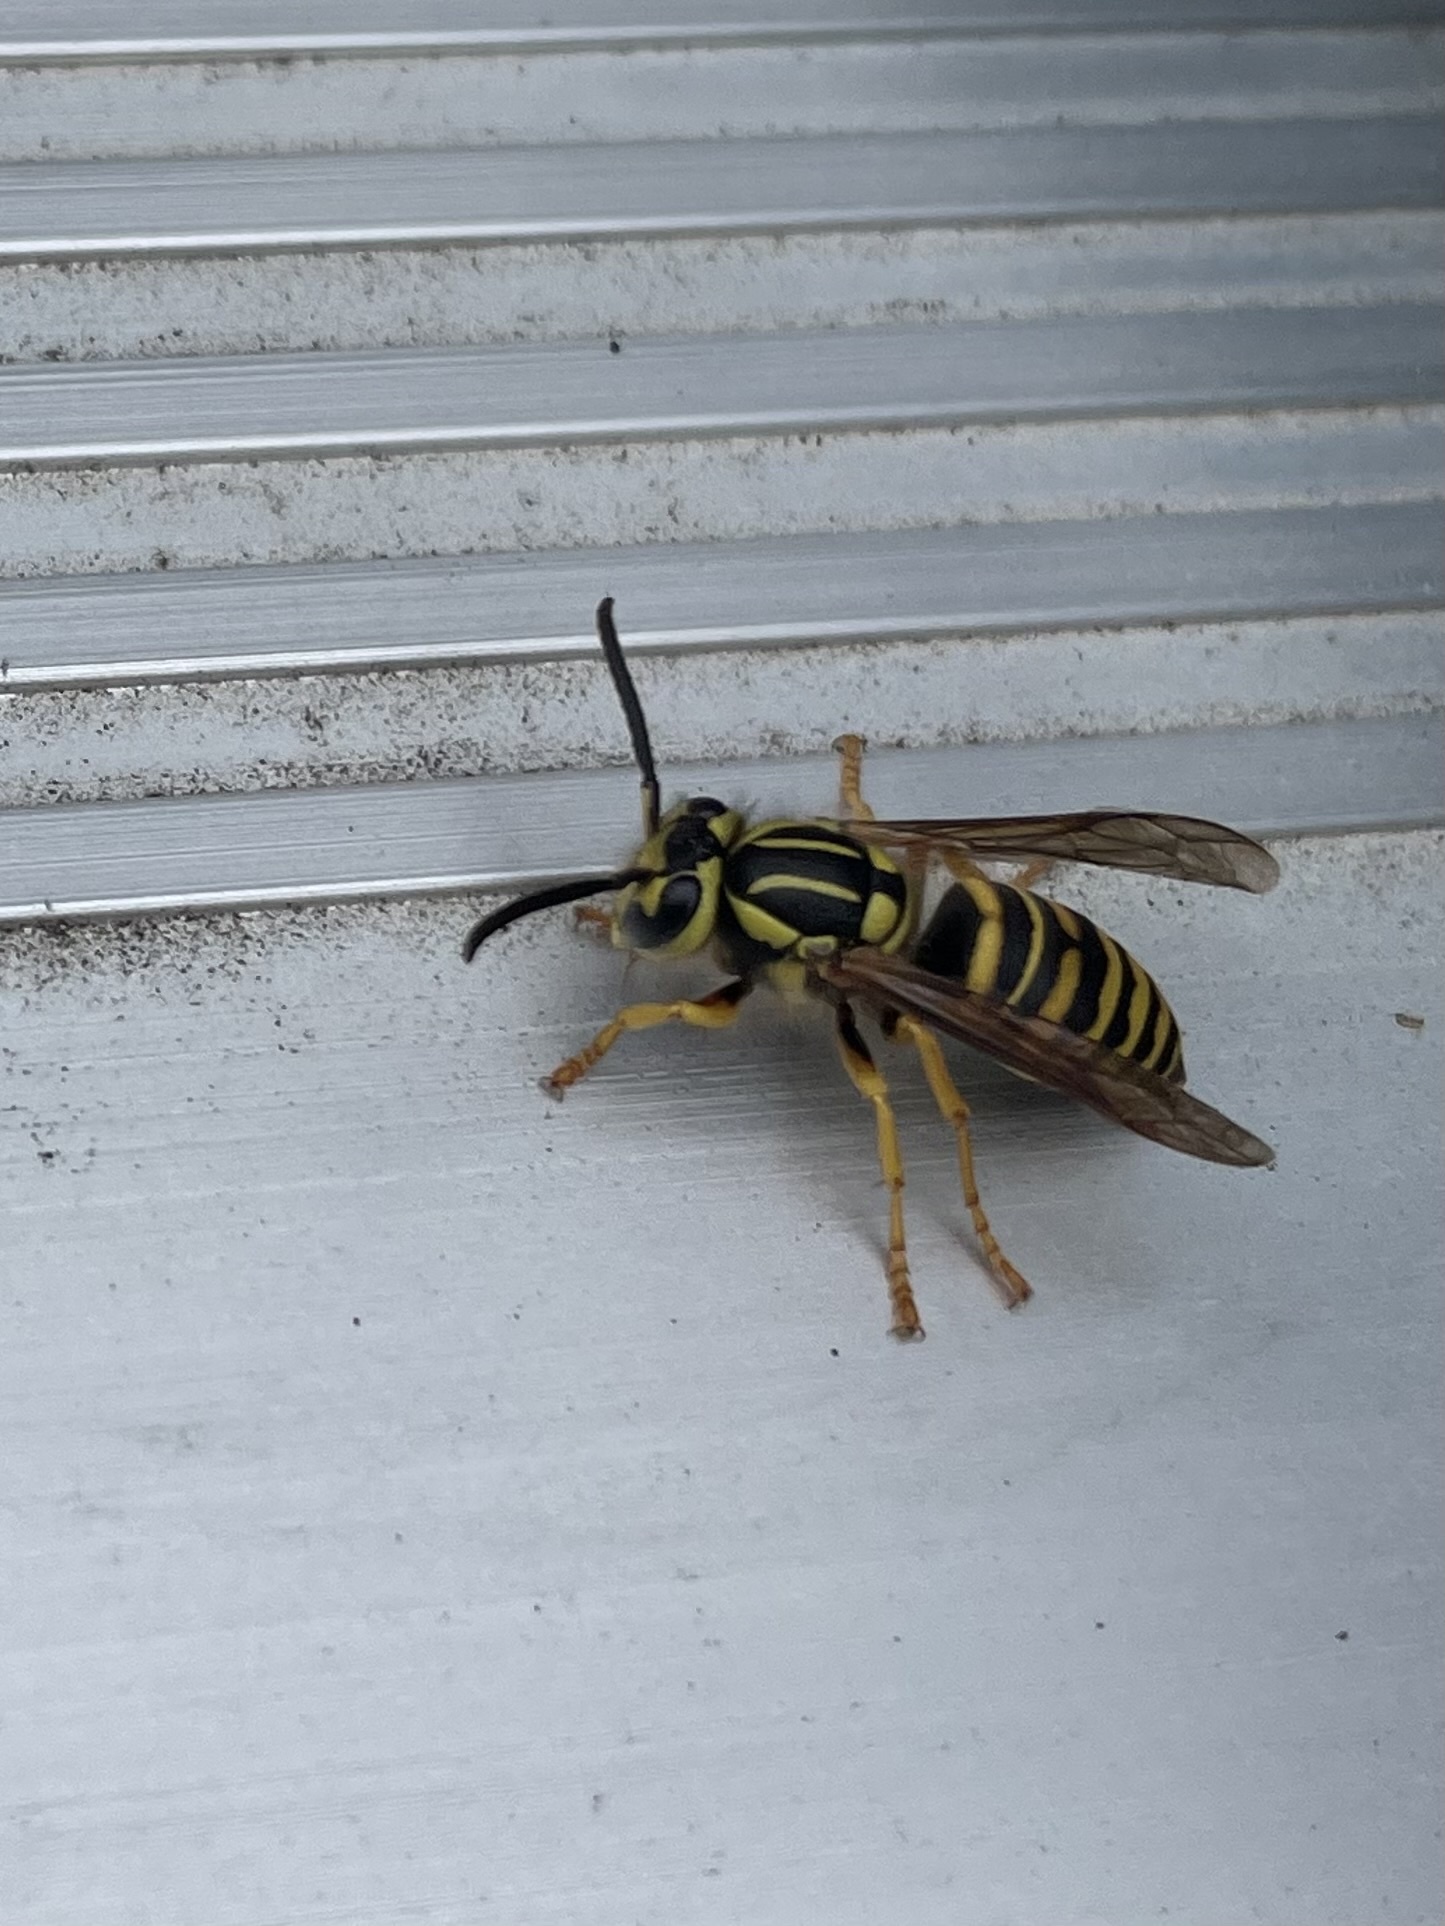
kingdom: Animalia
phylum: Arthropoda
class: Insecta
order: Hymenoptera
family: Vespidae
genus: Vespula
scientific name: Vespula squamosa
